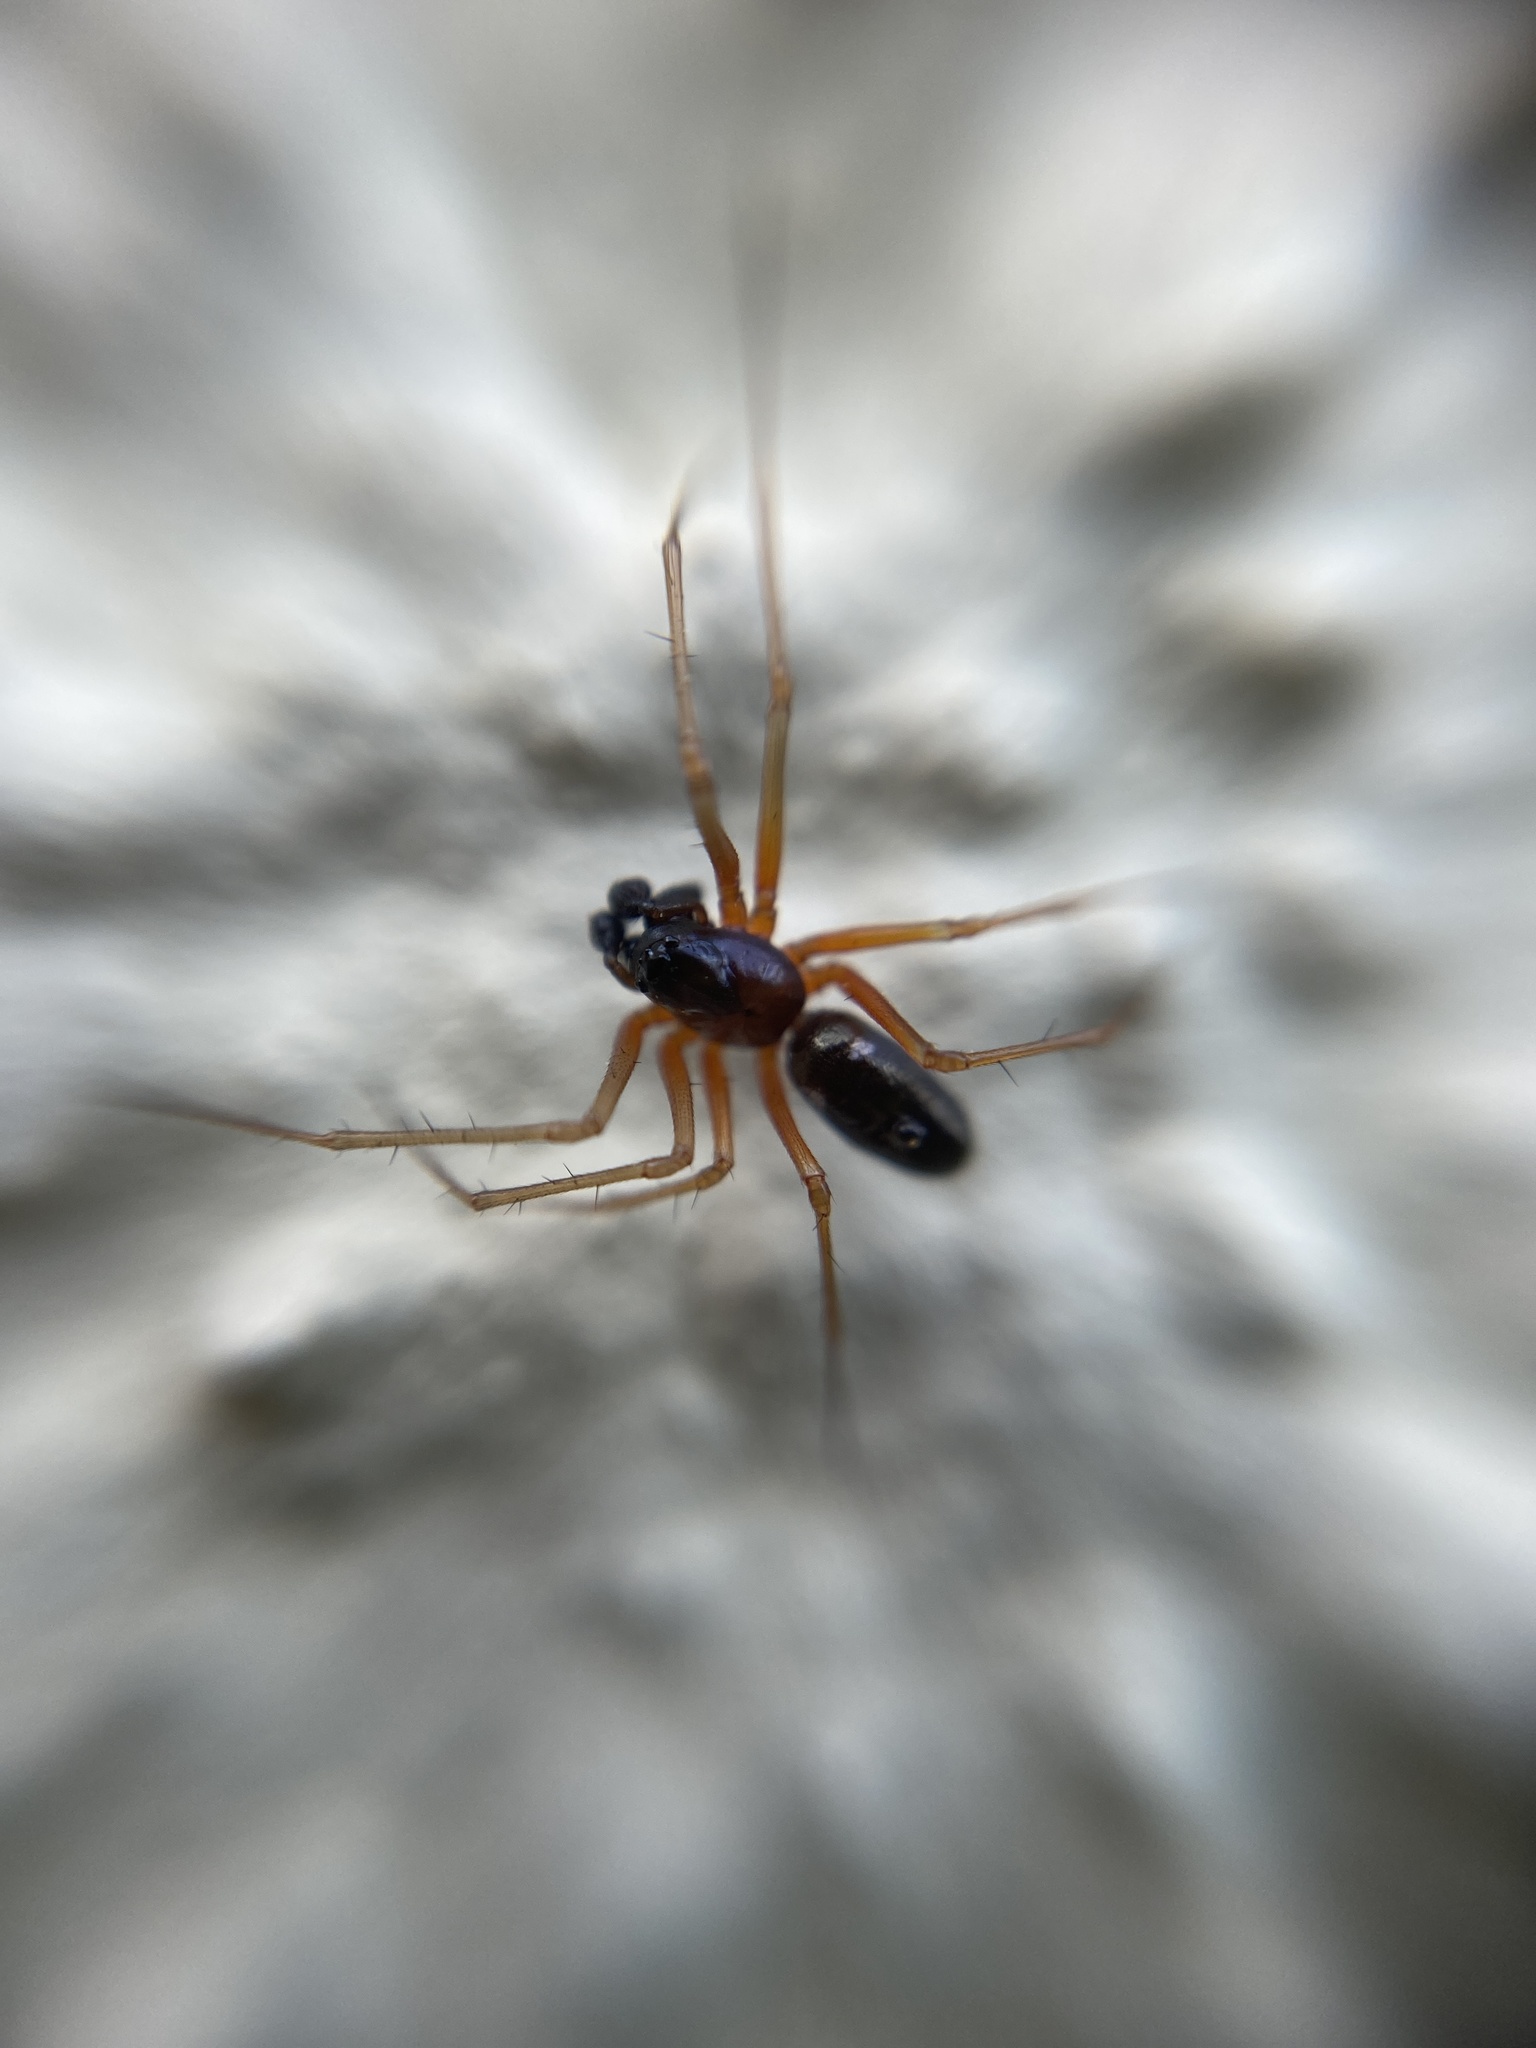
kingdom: Animalia
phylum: Arthropoda
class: Arachnida
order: Araneae
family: Linyphiidae
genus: Neriene
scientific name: Neriene clathrata
